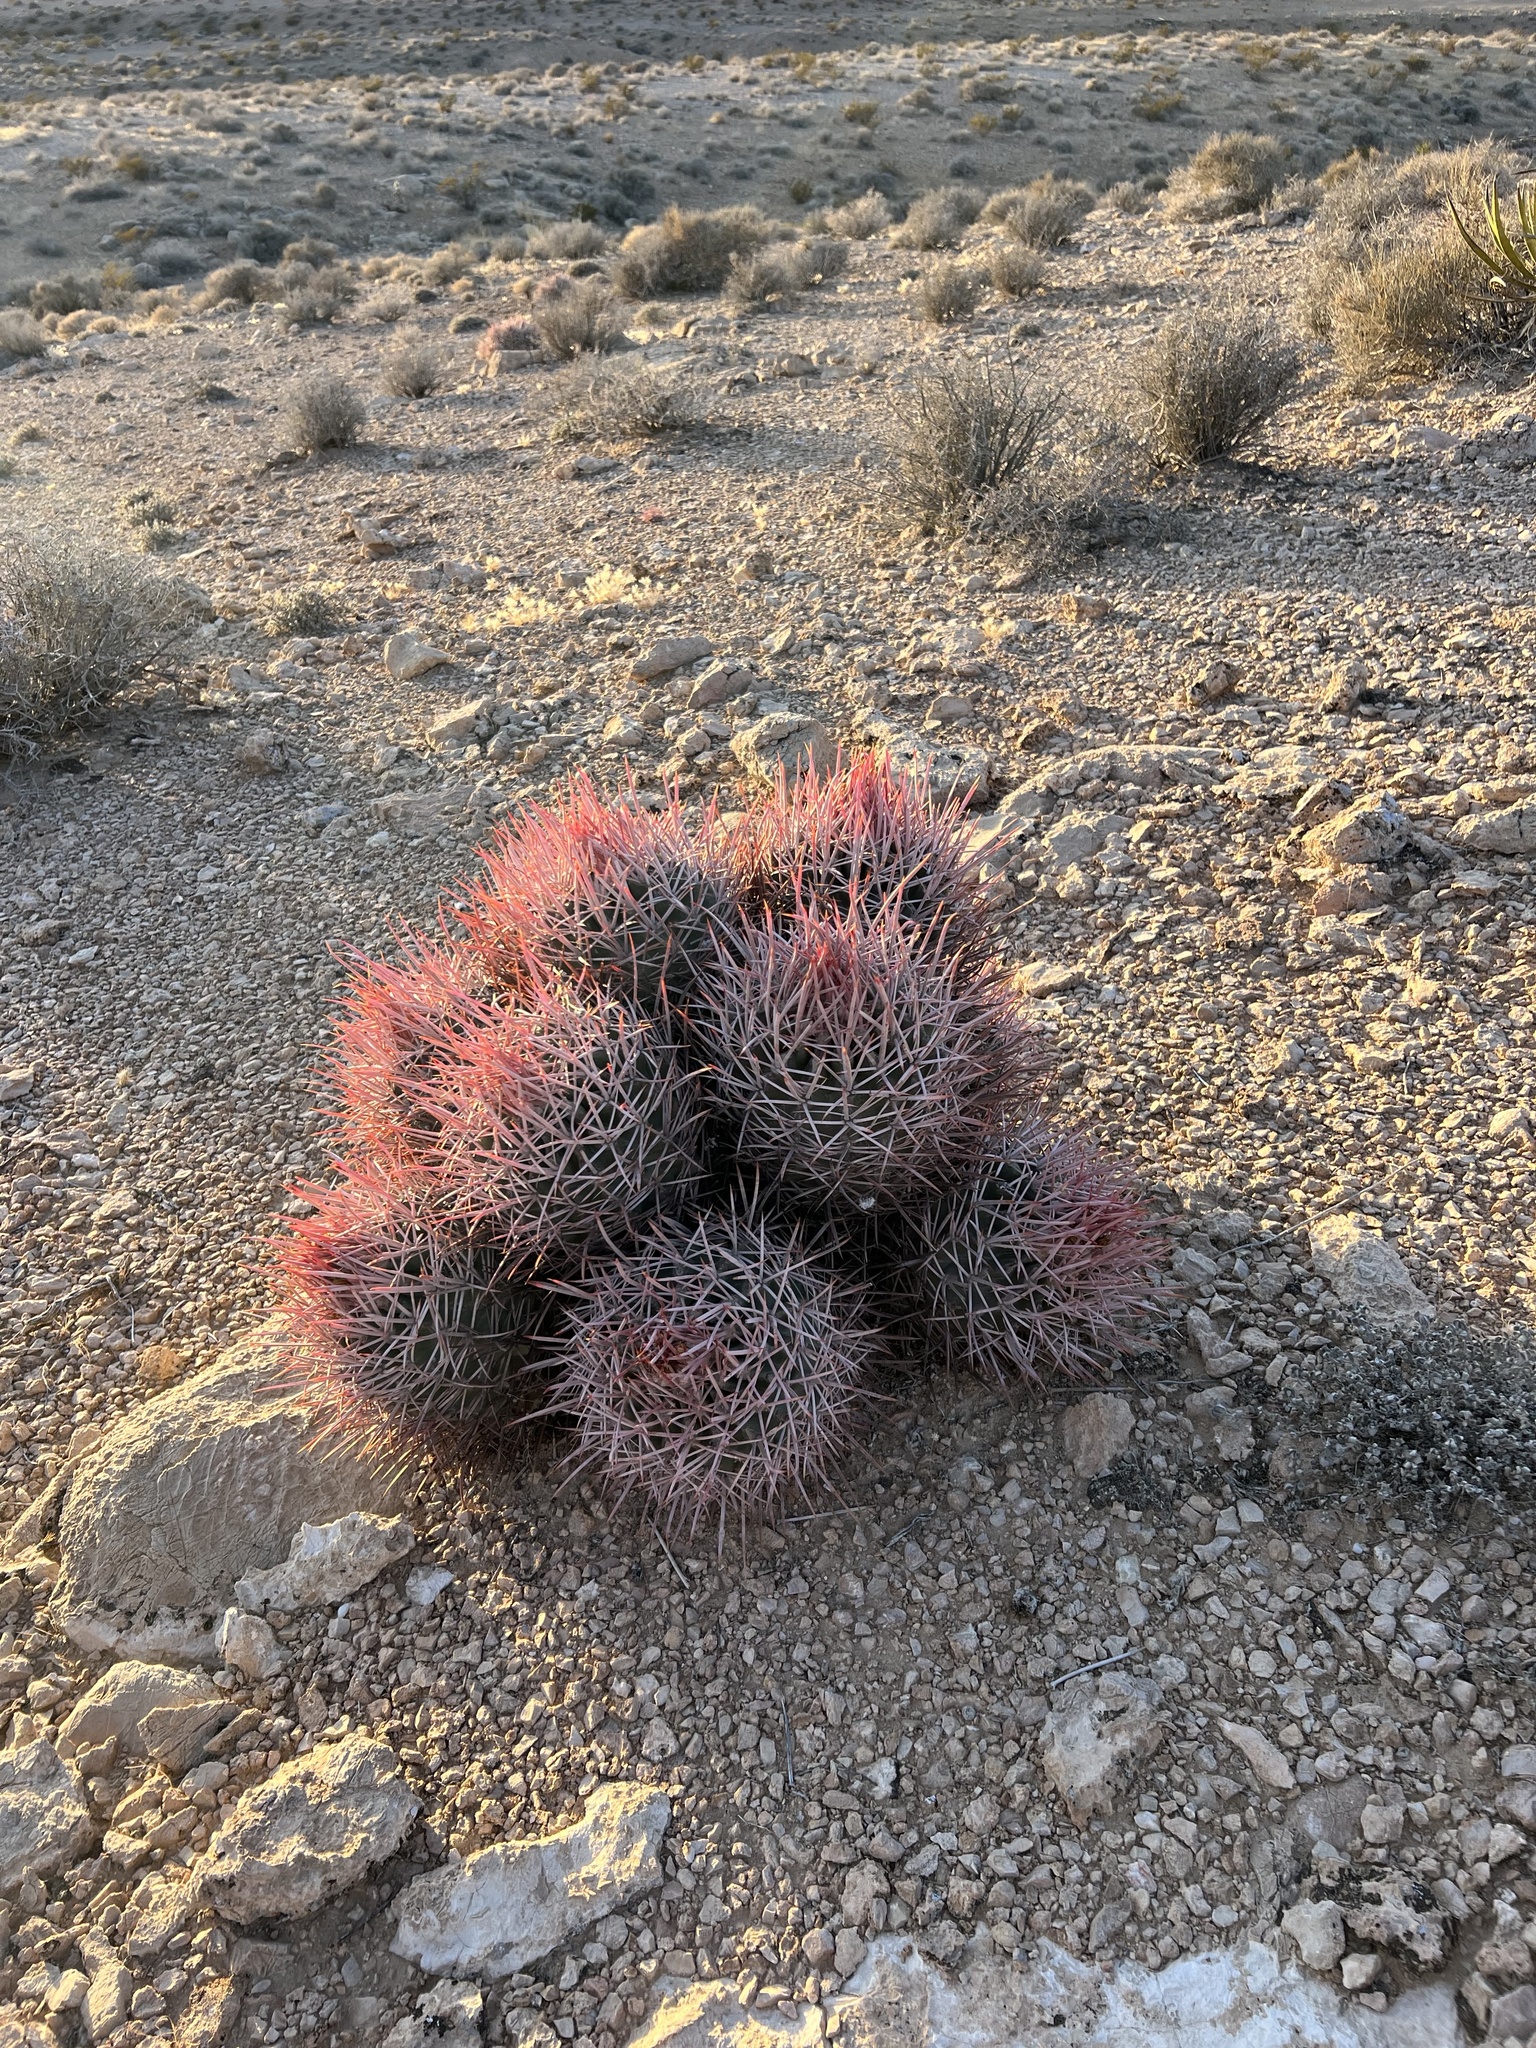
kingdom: Plantae
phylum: Tracheophyta
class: Magnoliopsida
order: Caryophyllales
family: Cactaceae
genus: Echinocactus
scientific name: Echinocactus polycephalus
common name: Cottontop cactus
